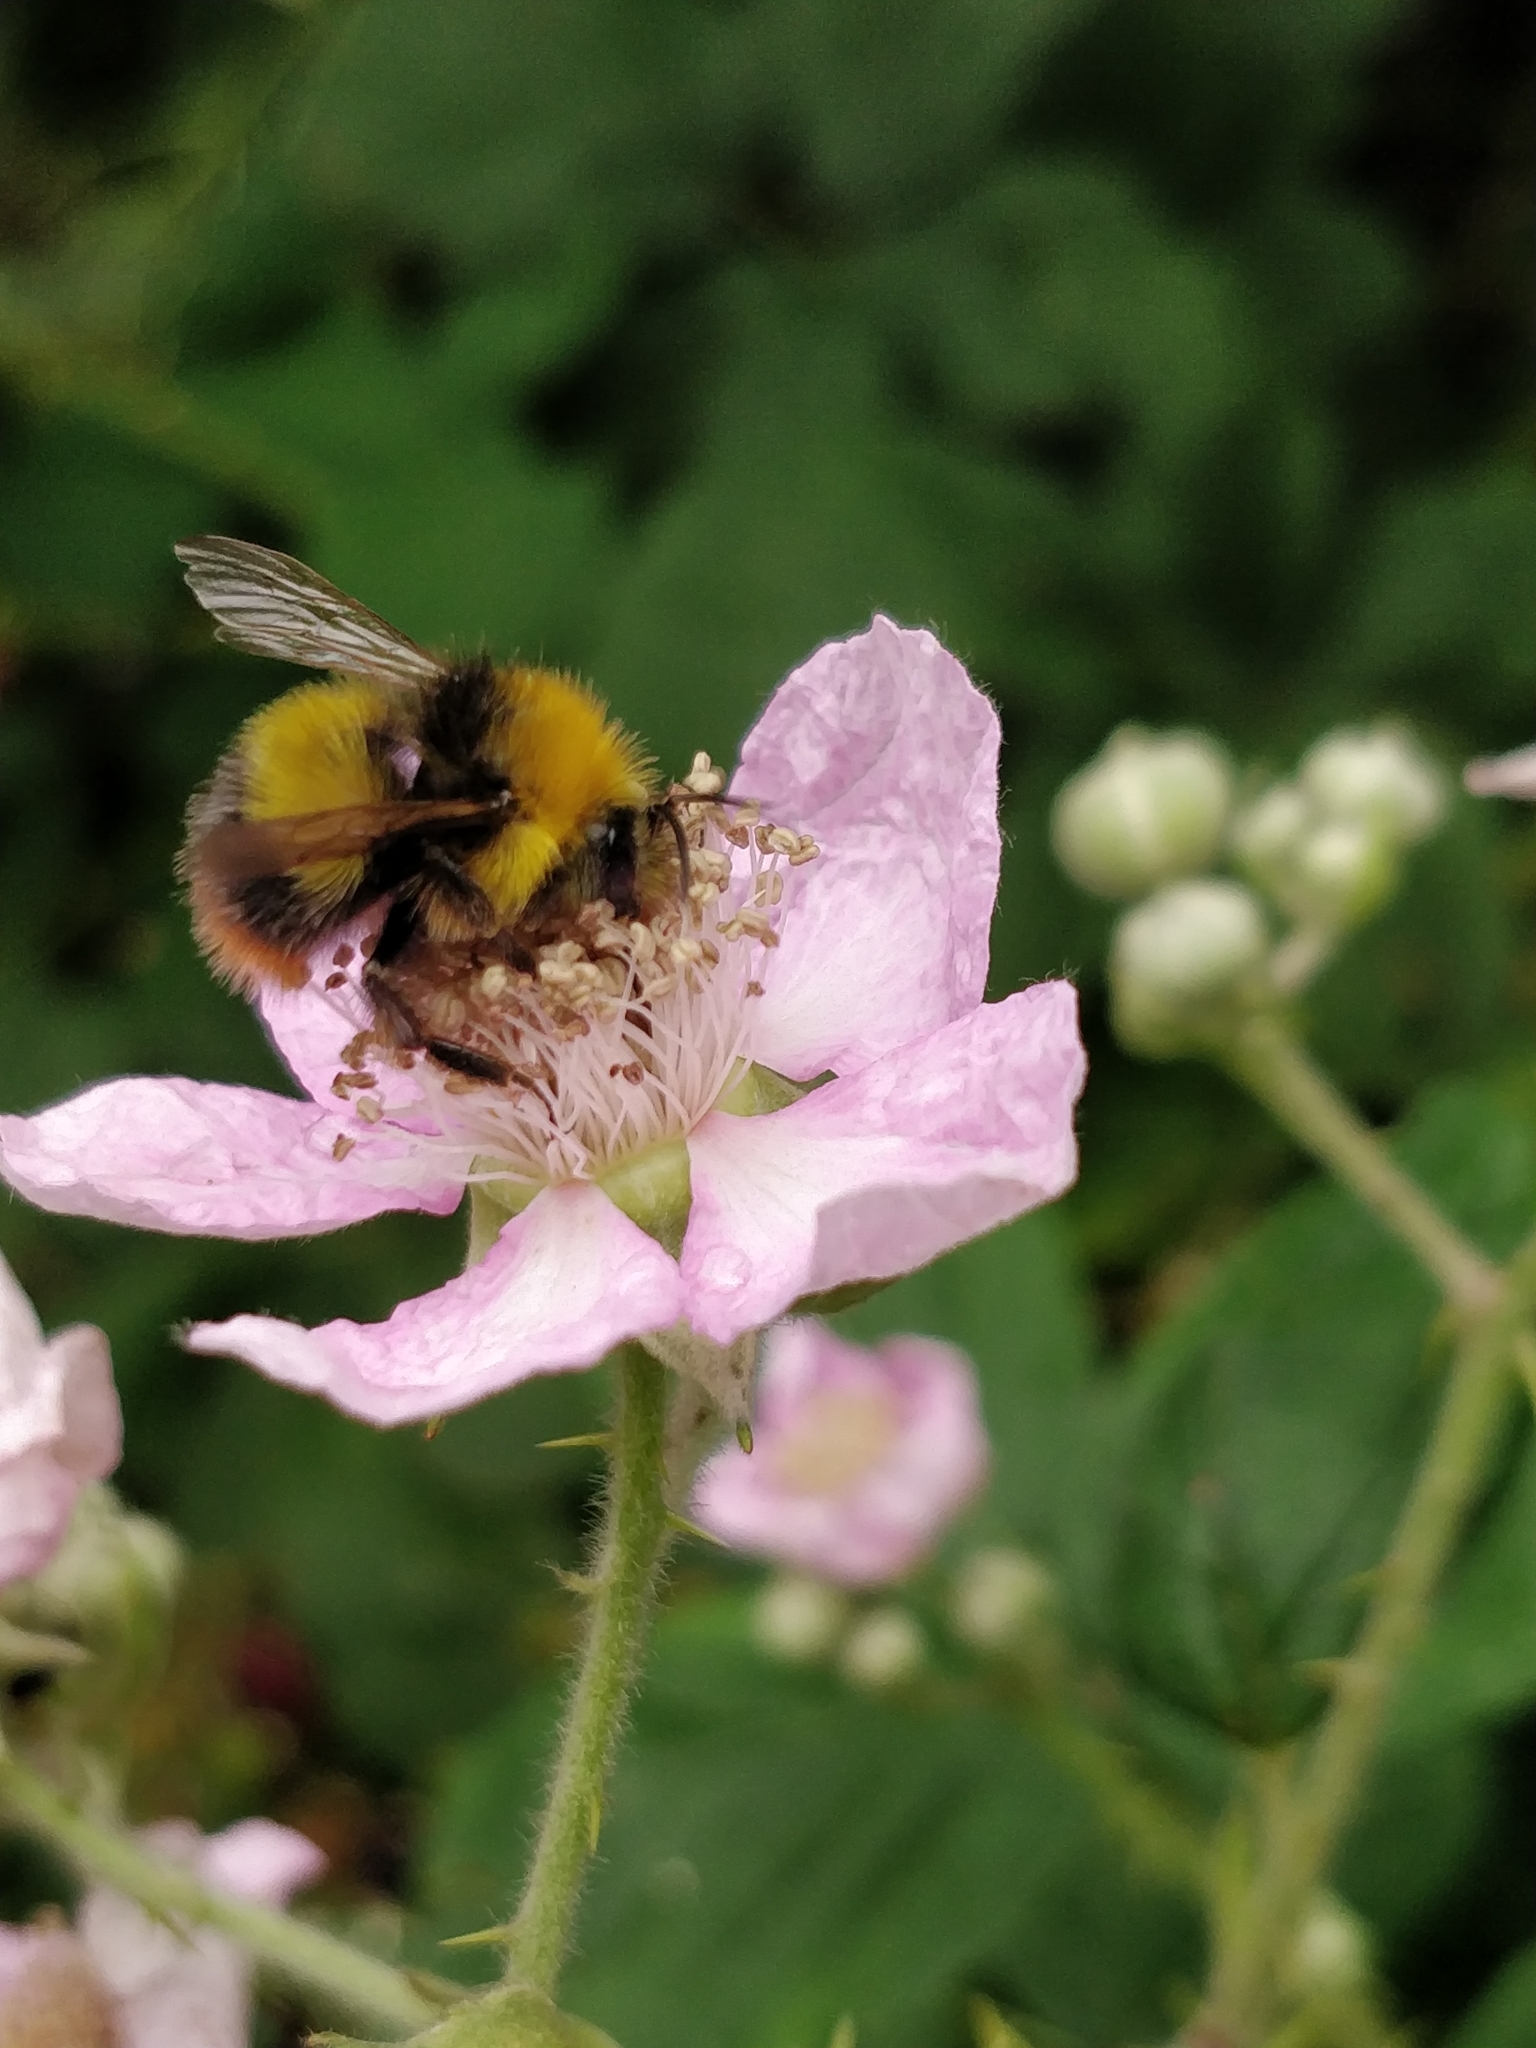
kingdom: Animalia
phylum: Arthropoda
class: Insecta
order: Hymenoptera
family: Apidae
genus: Bombus
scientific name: Bombus pratorum
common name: Early humble-bee
